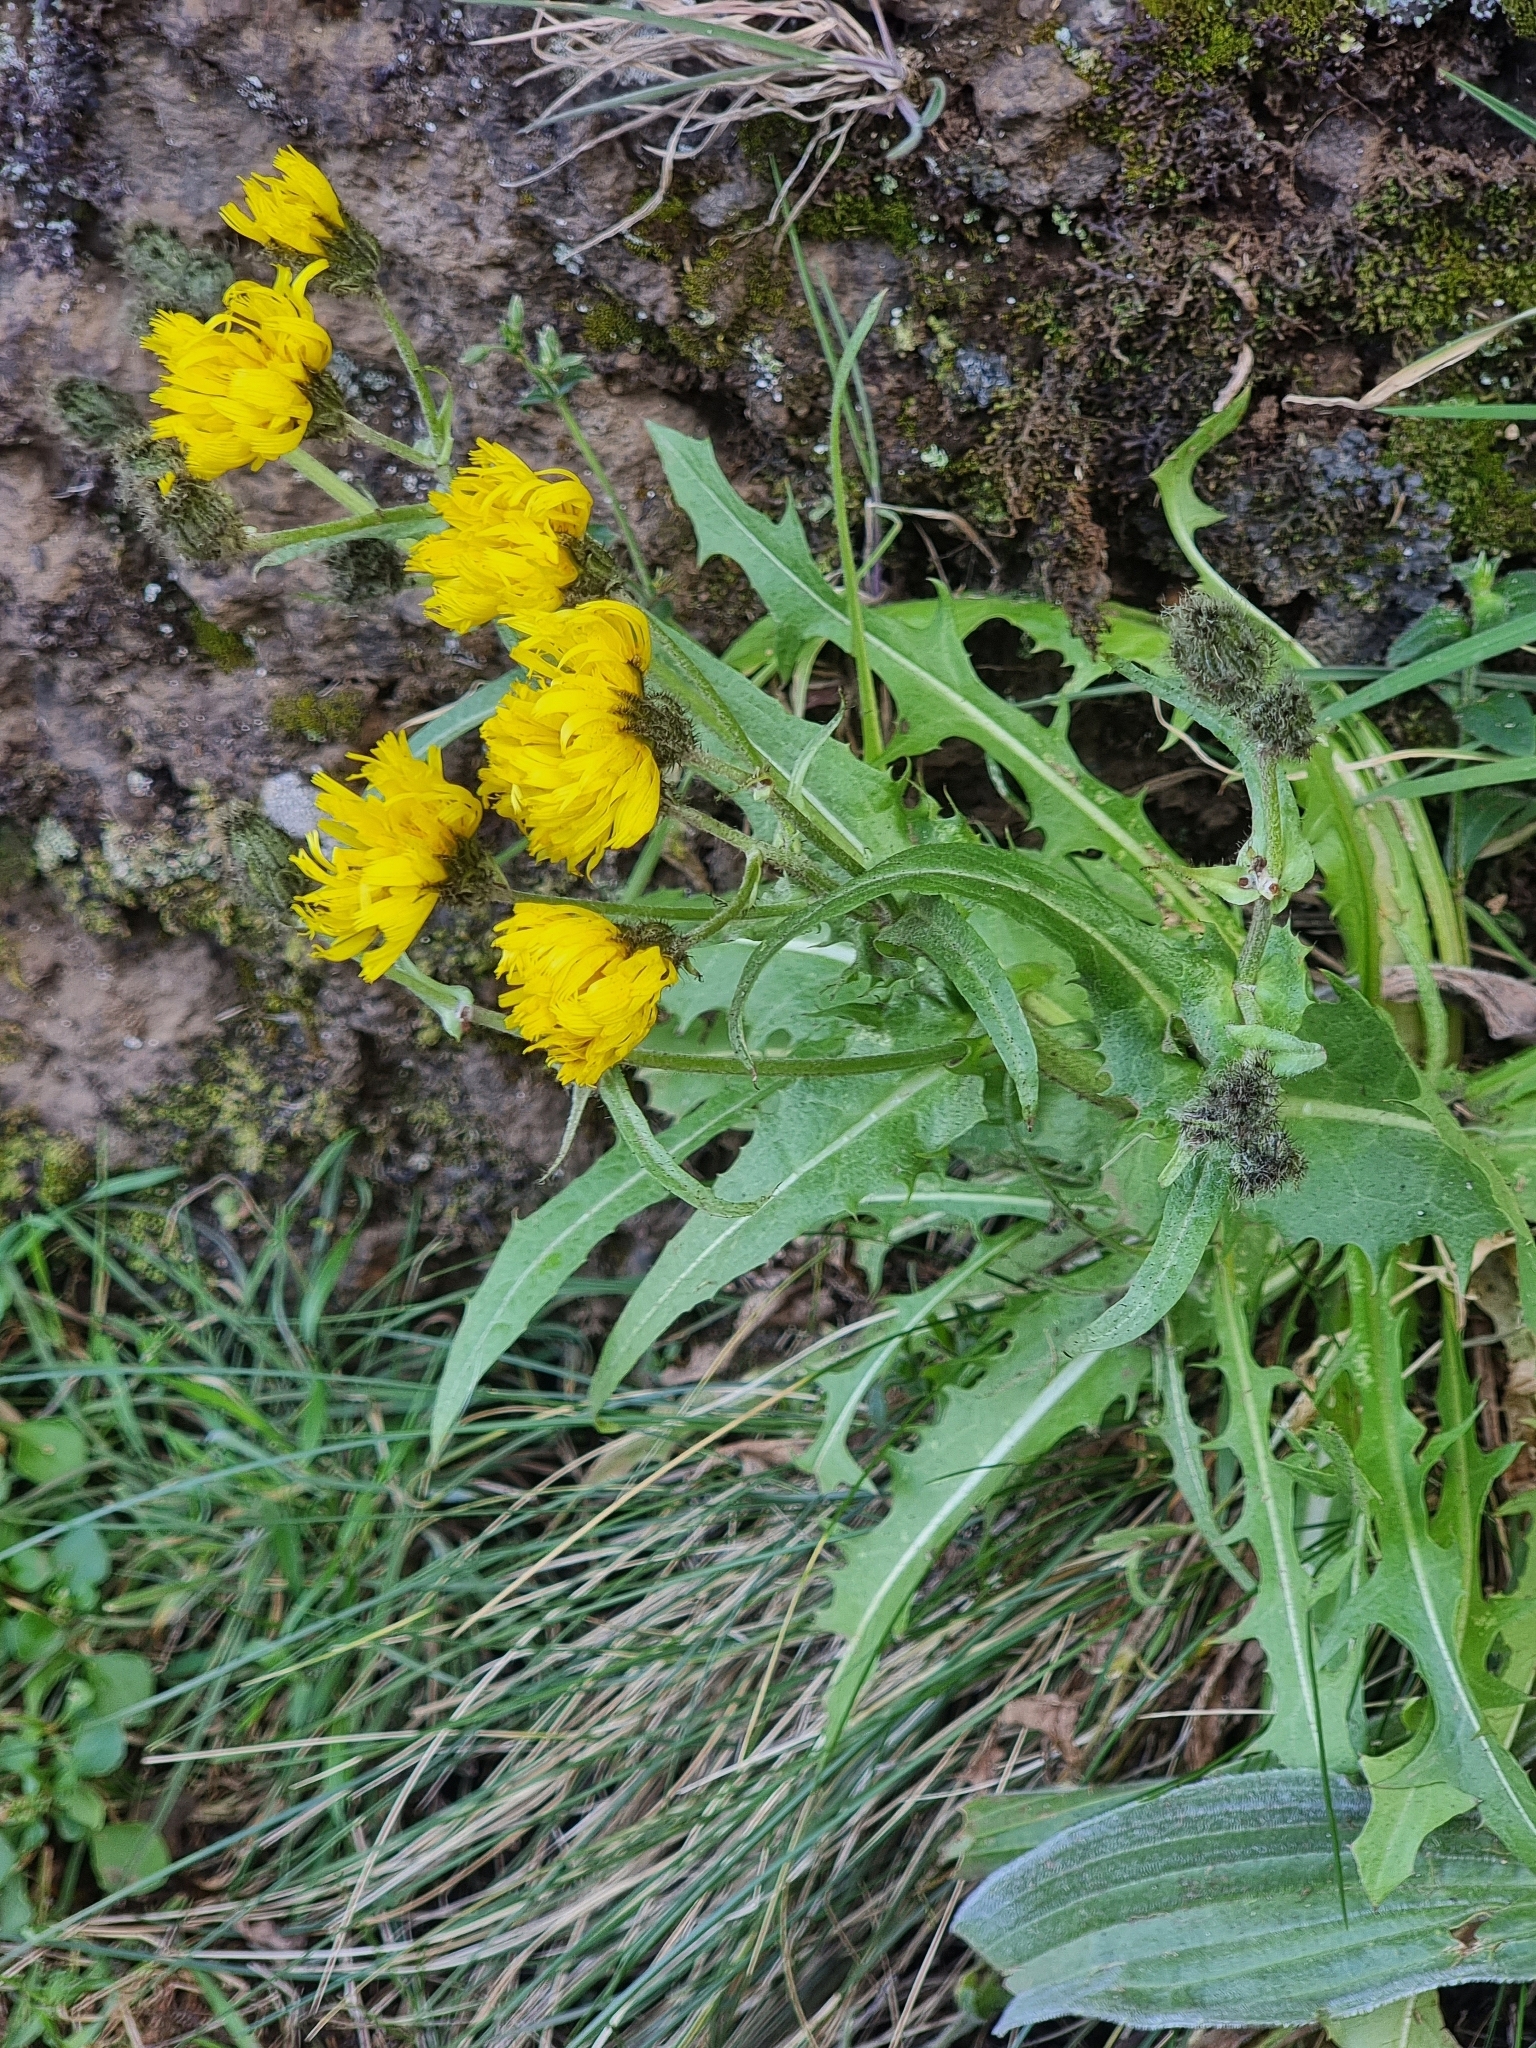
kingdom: Plantae
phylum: Tracheophyta
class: Magnoliopsida
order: Asterales
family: Asteraceae
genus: Crepis
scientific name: Crepis vesicaria
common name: Beaked hawksbeard
